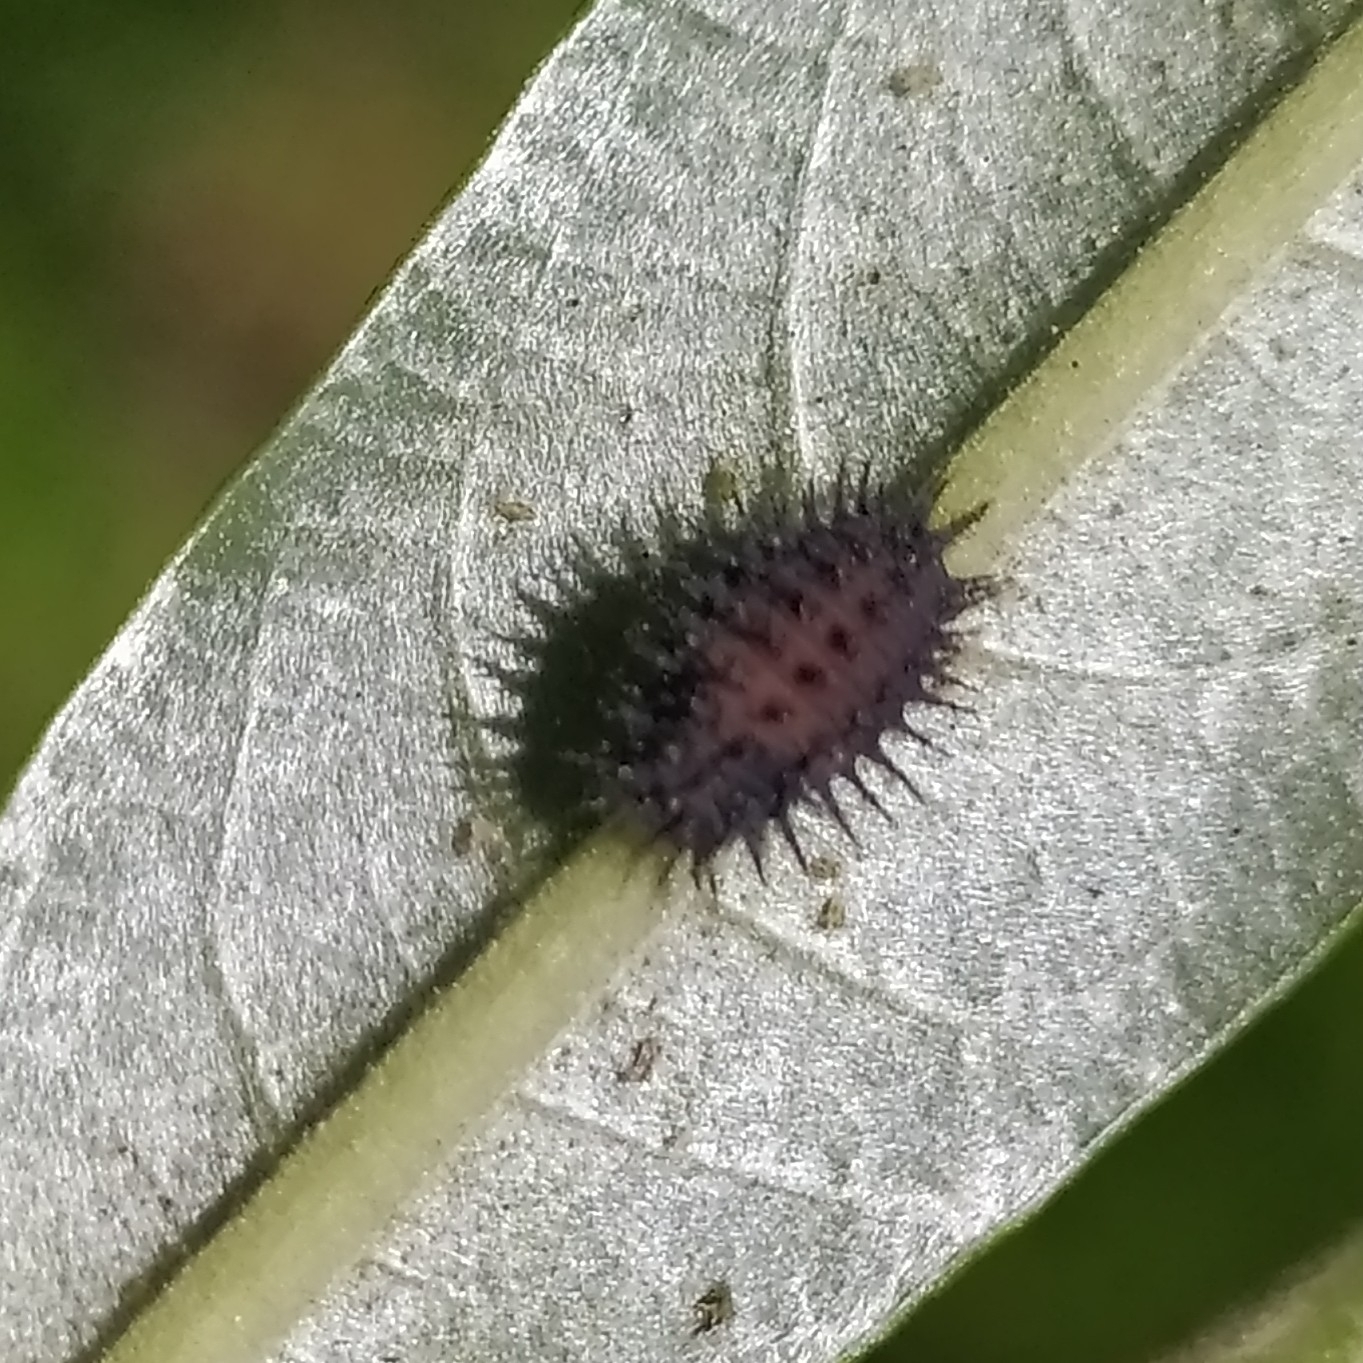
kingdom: Animalia
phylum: Arthropoda
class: Insecta
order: Coleoptera
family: Coccinellidae
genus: Chilocorus
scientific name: Chilocorus renipustulatus
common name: Kidney-spot ladybird
